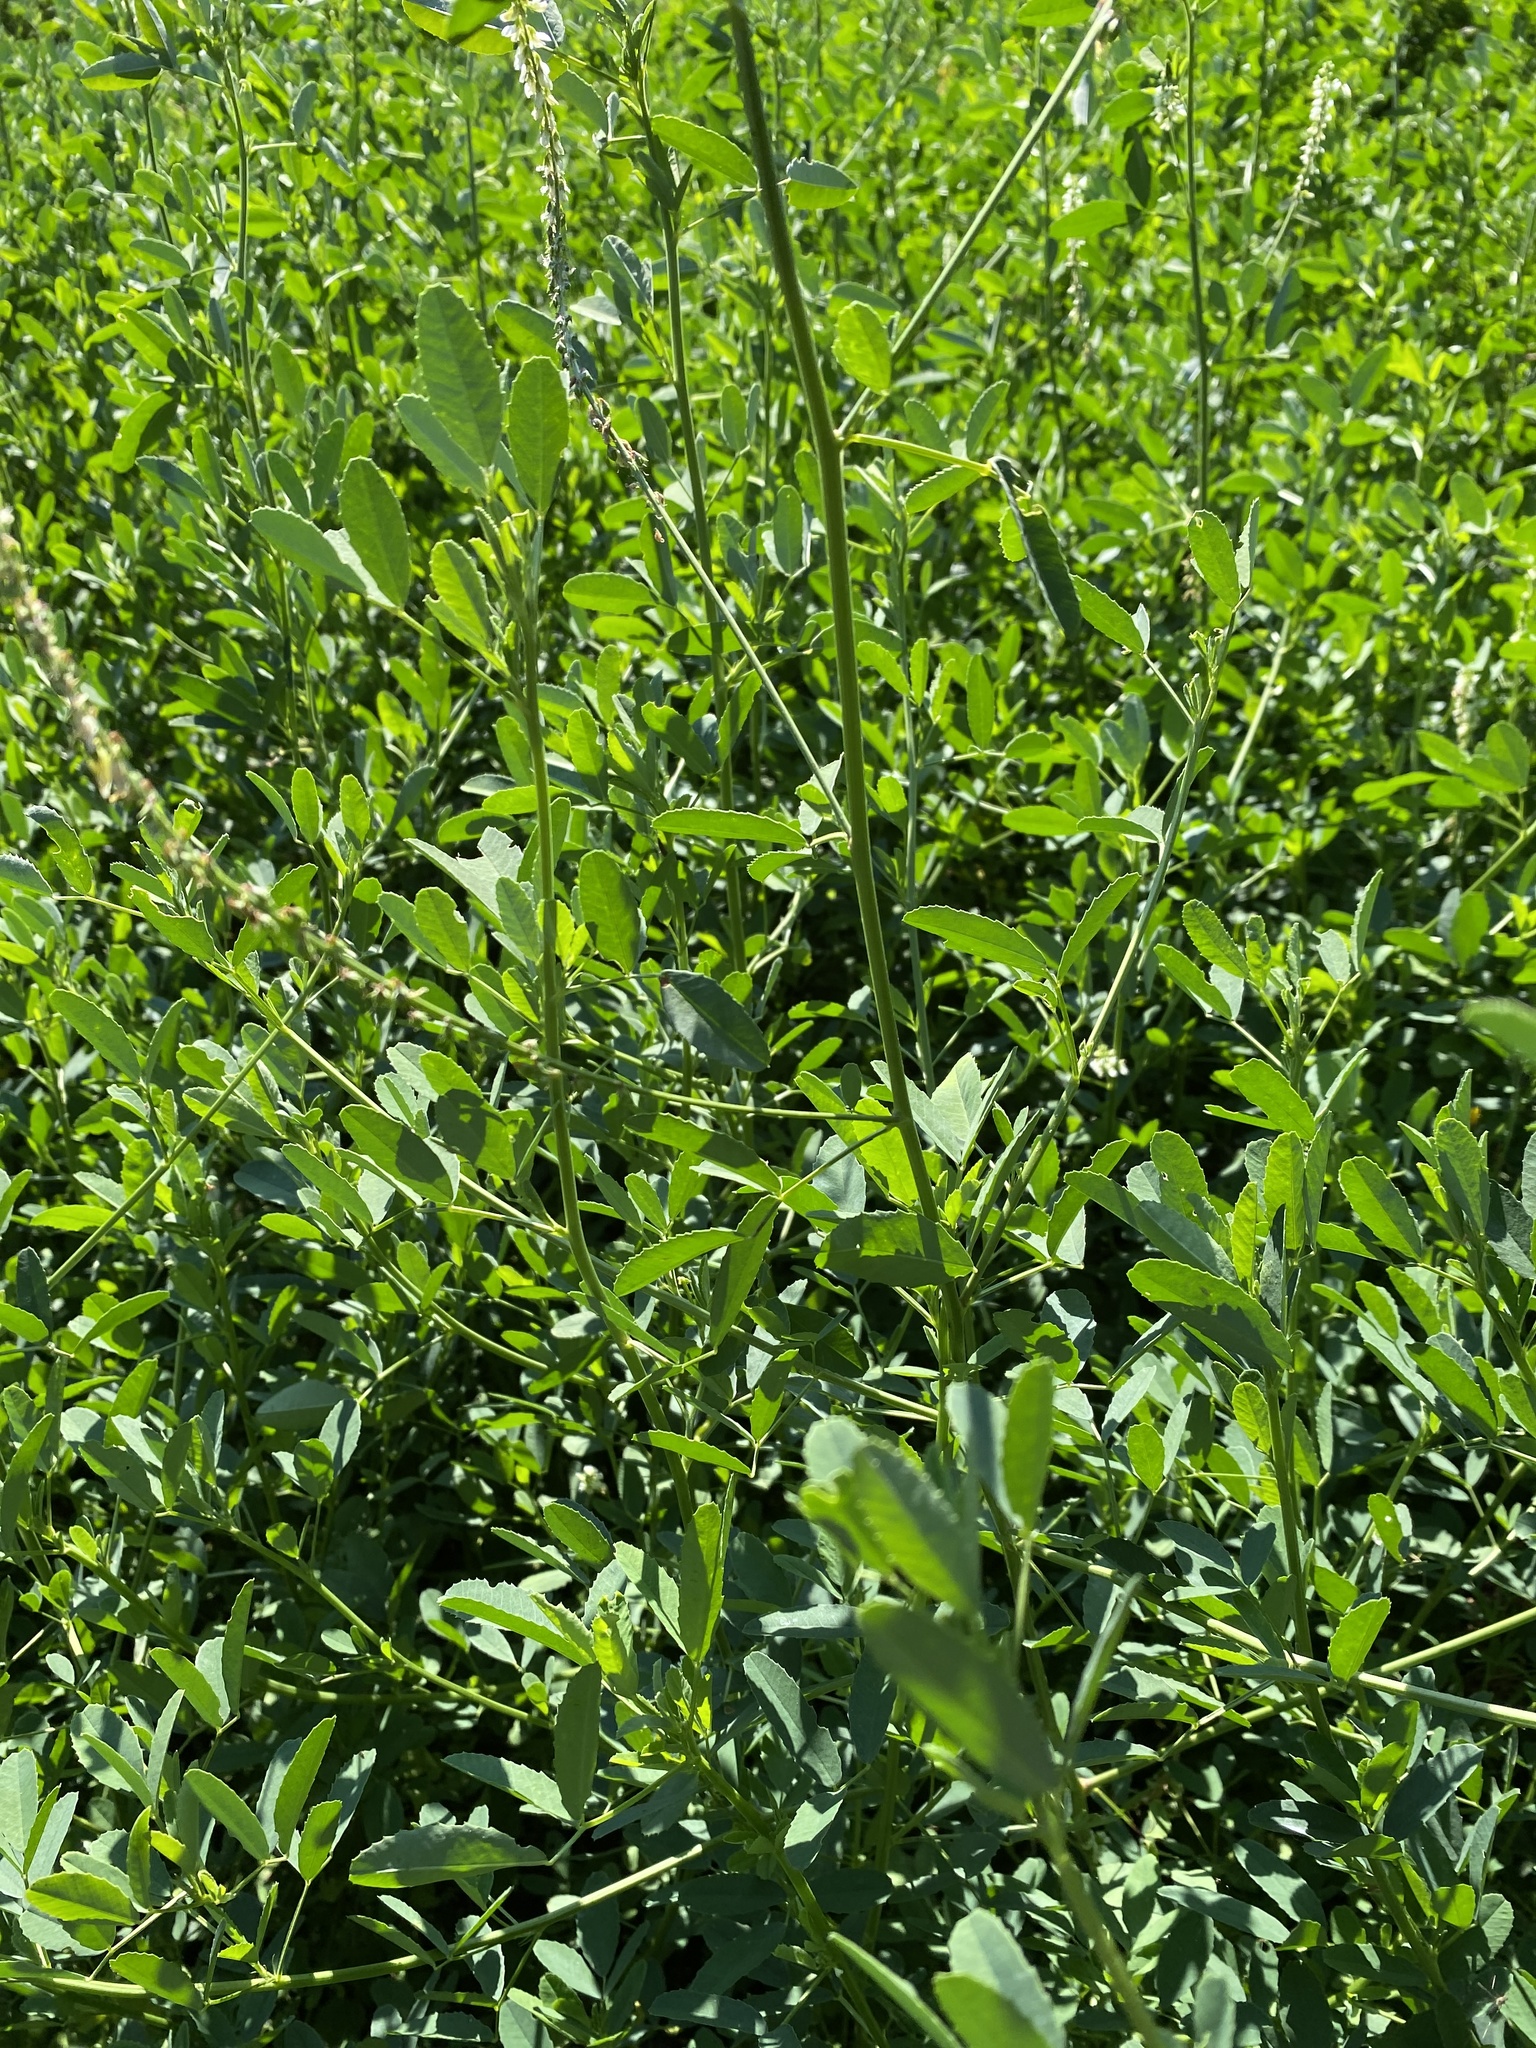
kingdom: Plantae
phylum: Tracheophyta
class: Magnoliopsida
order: Fabales
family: Fabaceae
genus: Melilotus
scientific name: Melilotus albus
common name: White melilot
